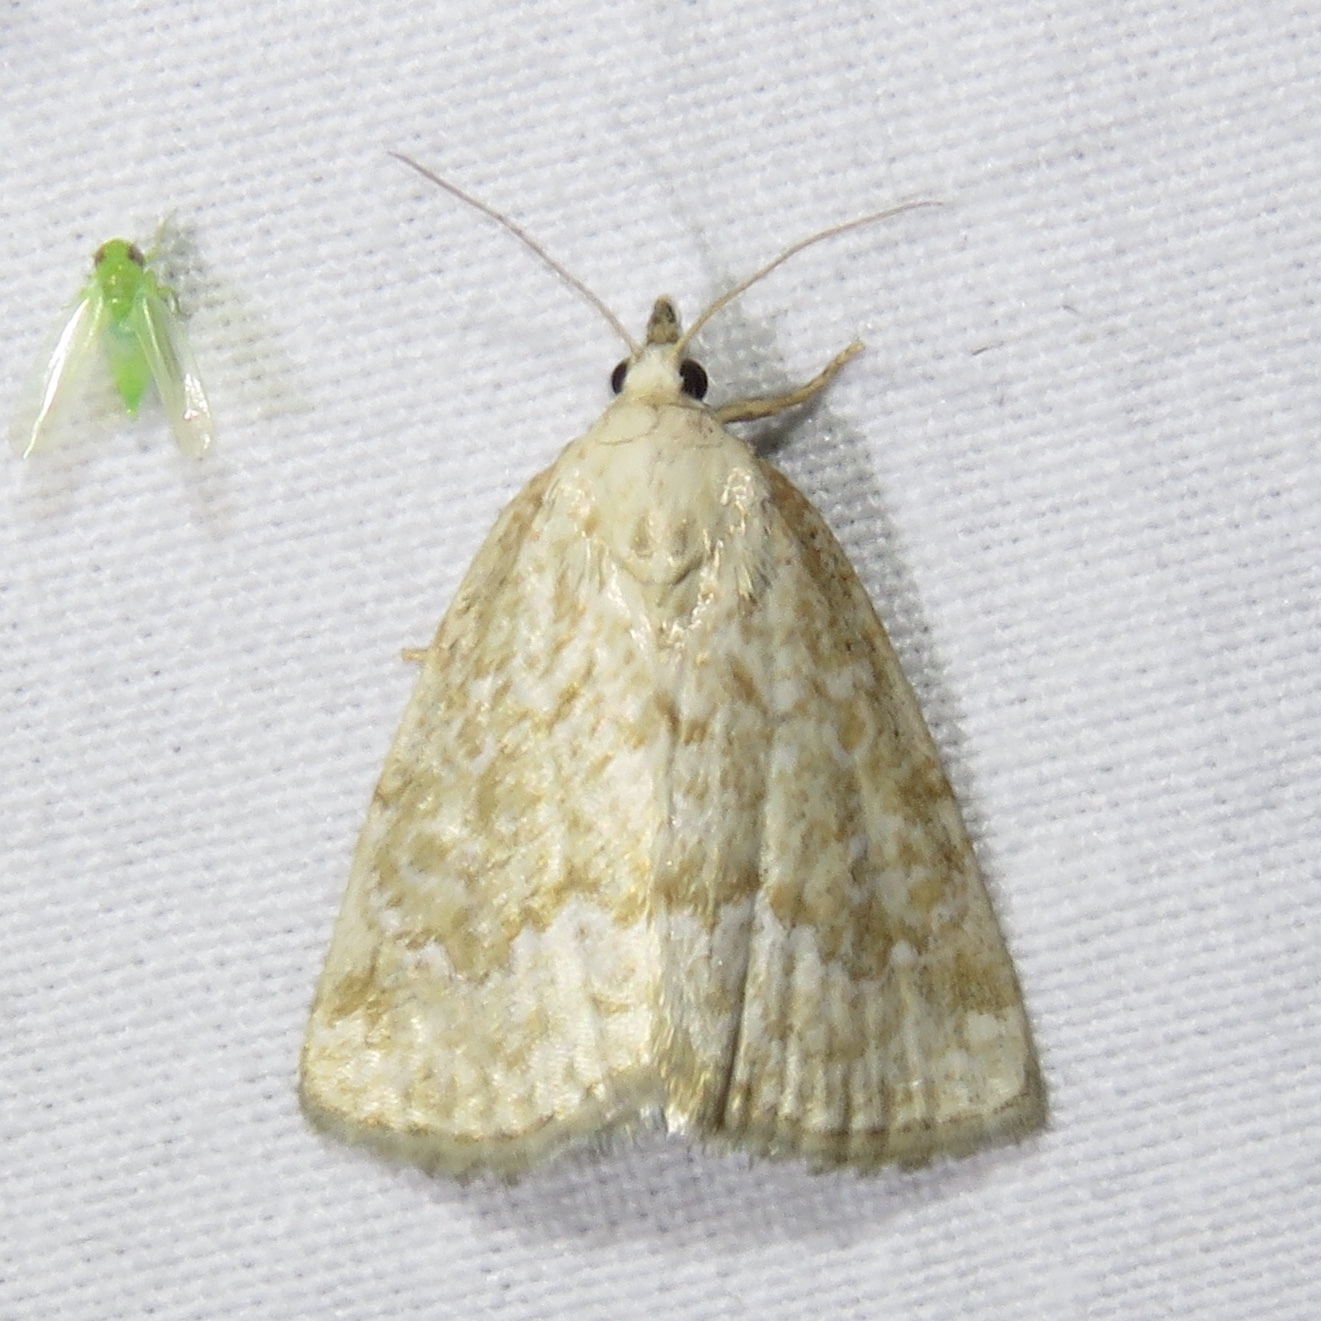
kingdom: Animalia
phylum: Arthropoda
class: Insecta
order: Lepidoptera
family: Noctuidae
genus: Protodeltote
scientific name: Protodeltote albidula
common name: Pale glyph
